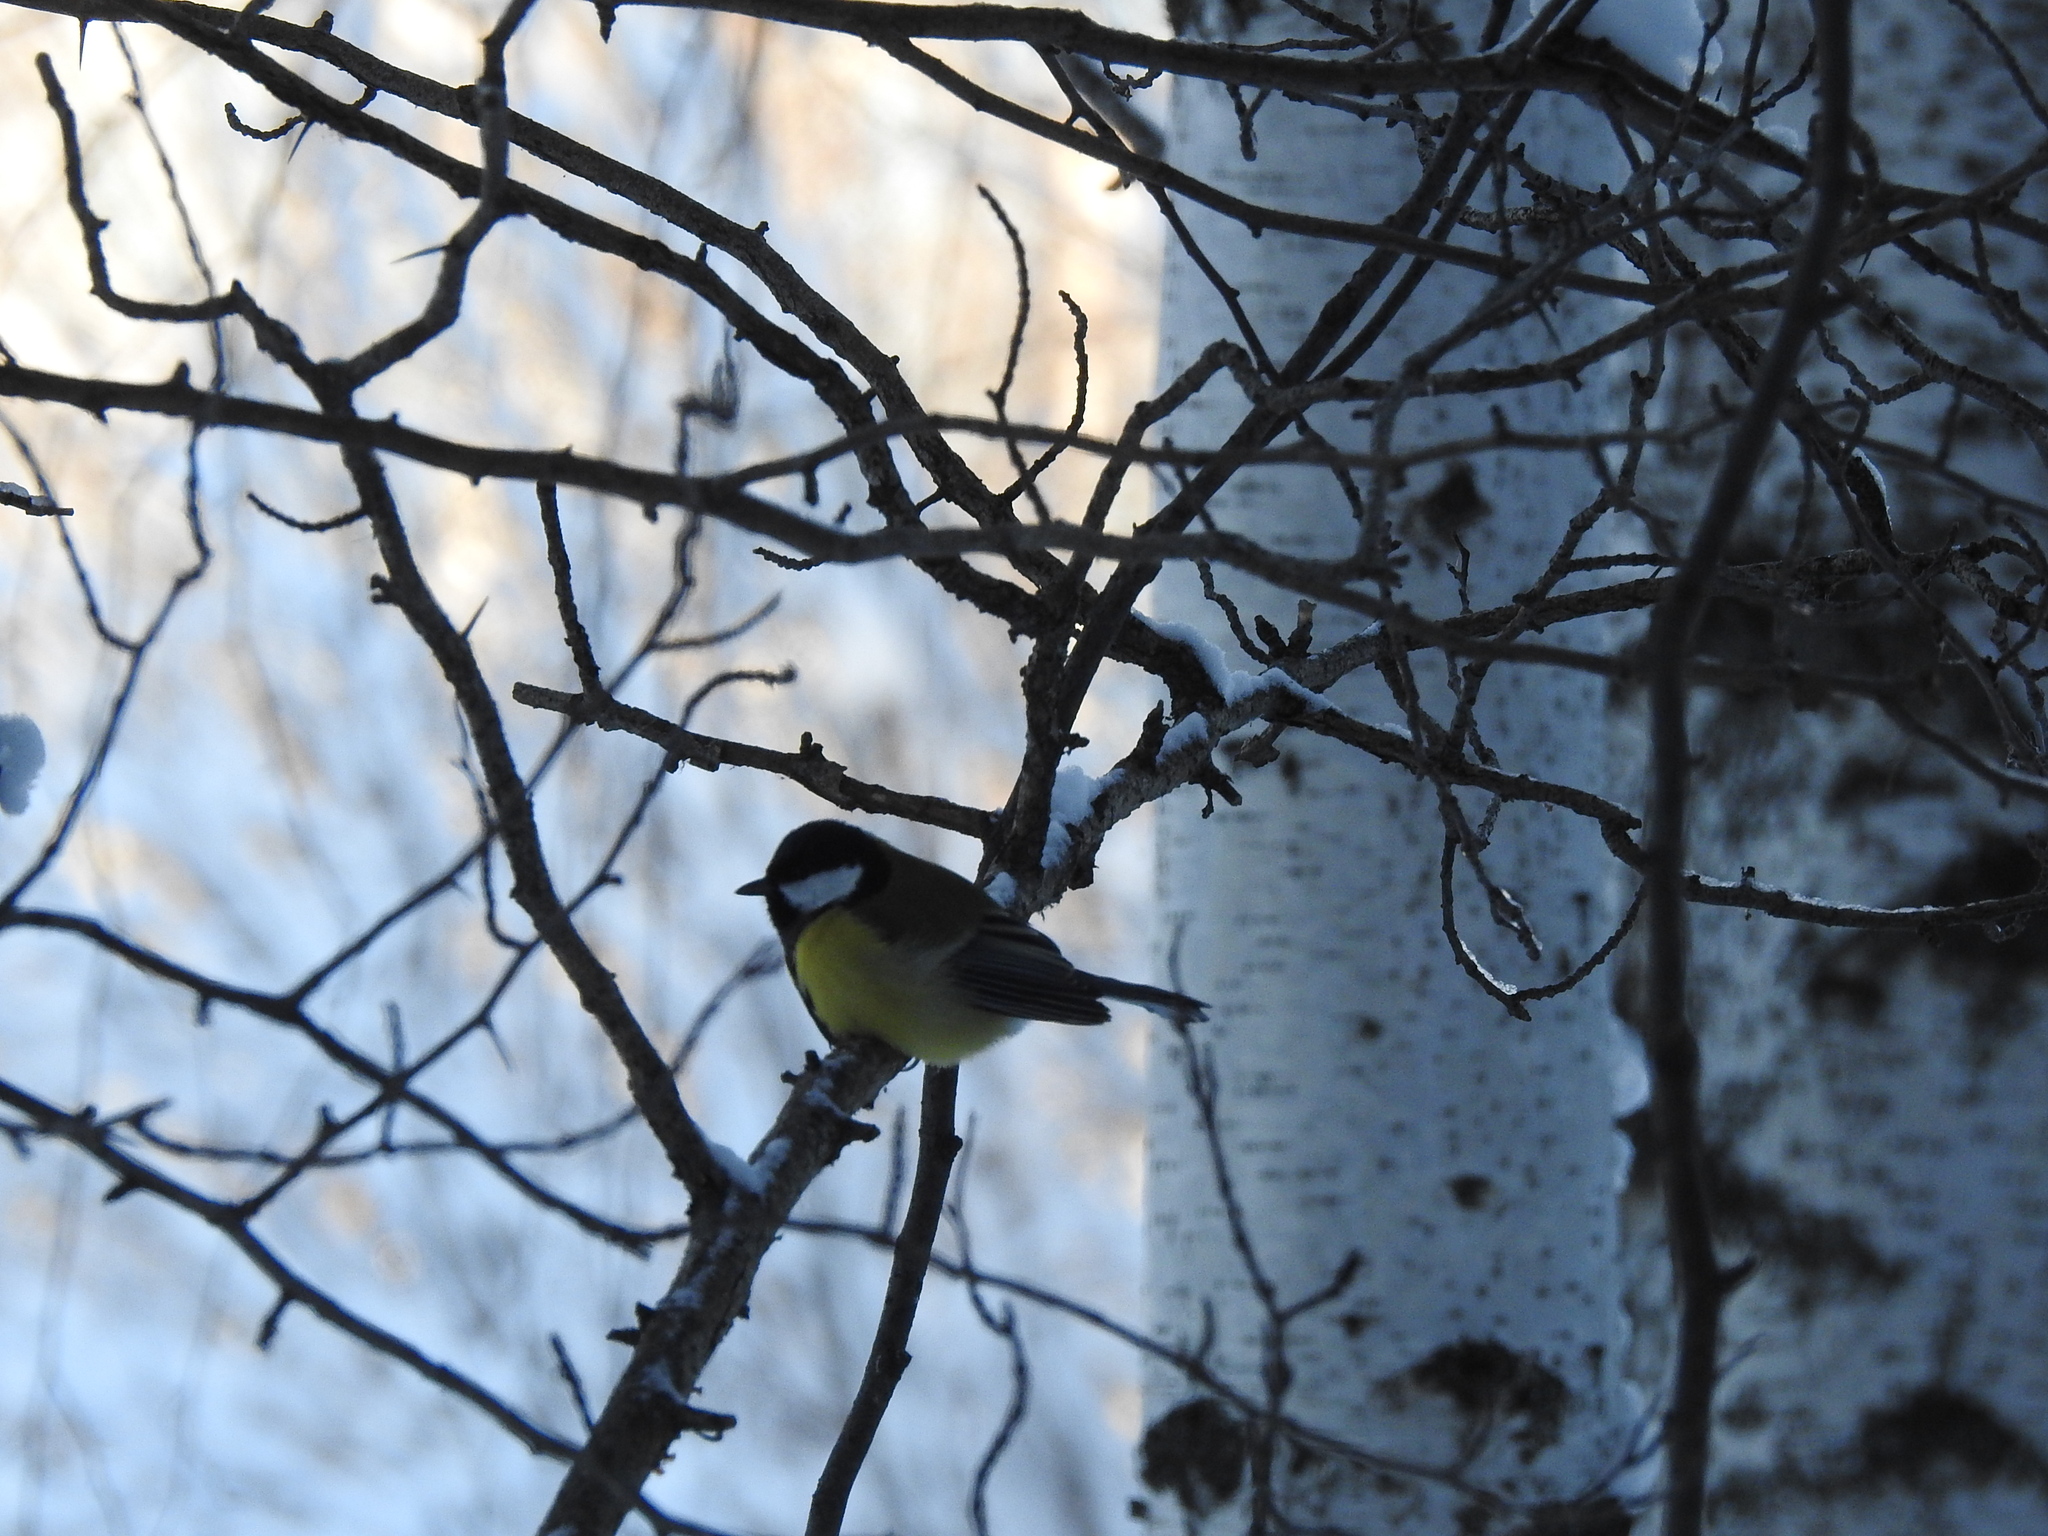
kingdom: Animalia
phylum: Chordata
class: Aves
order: Passeriformes
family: Paridae
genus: Parus
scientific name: Parus major
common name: Great tit
